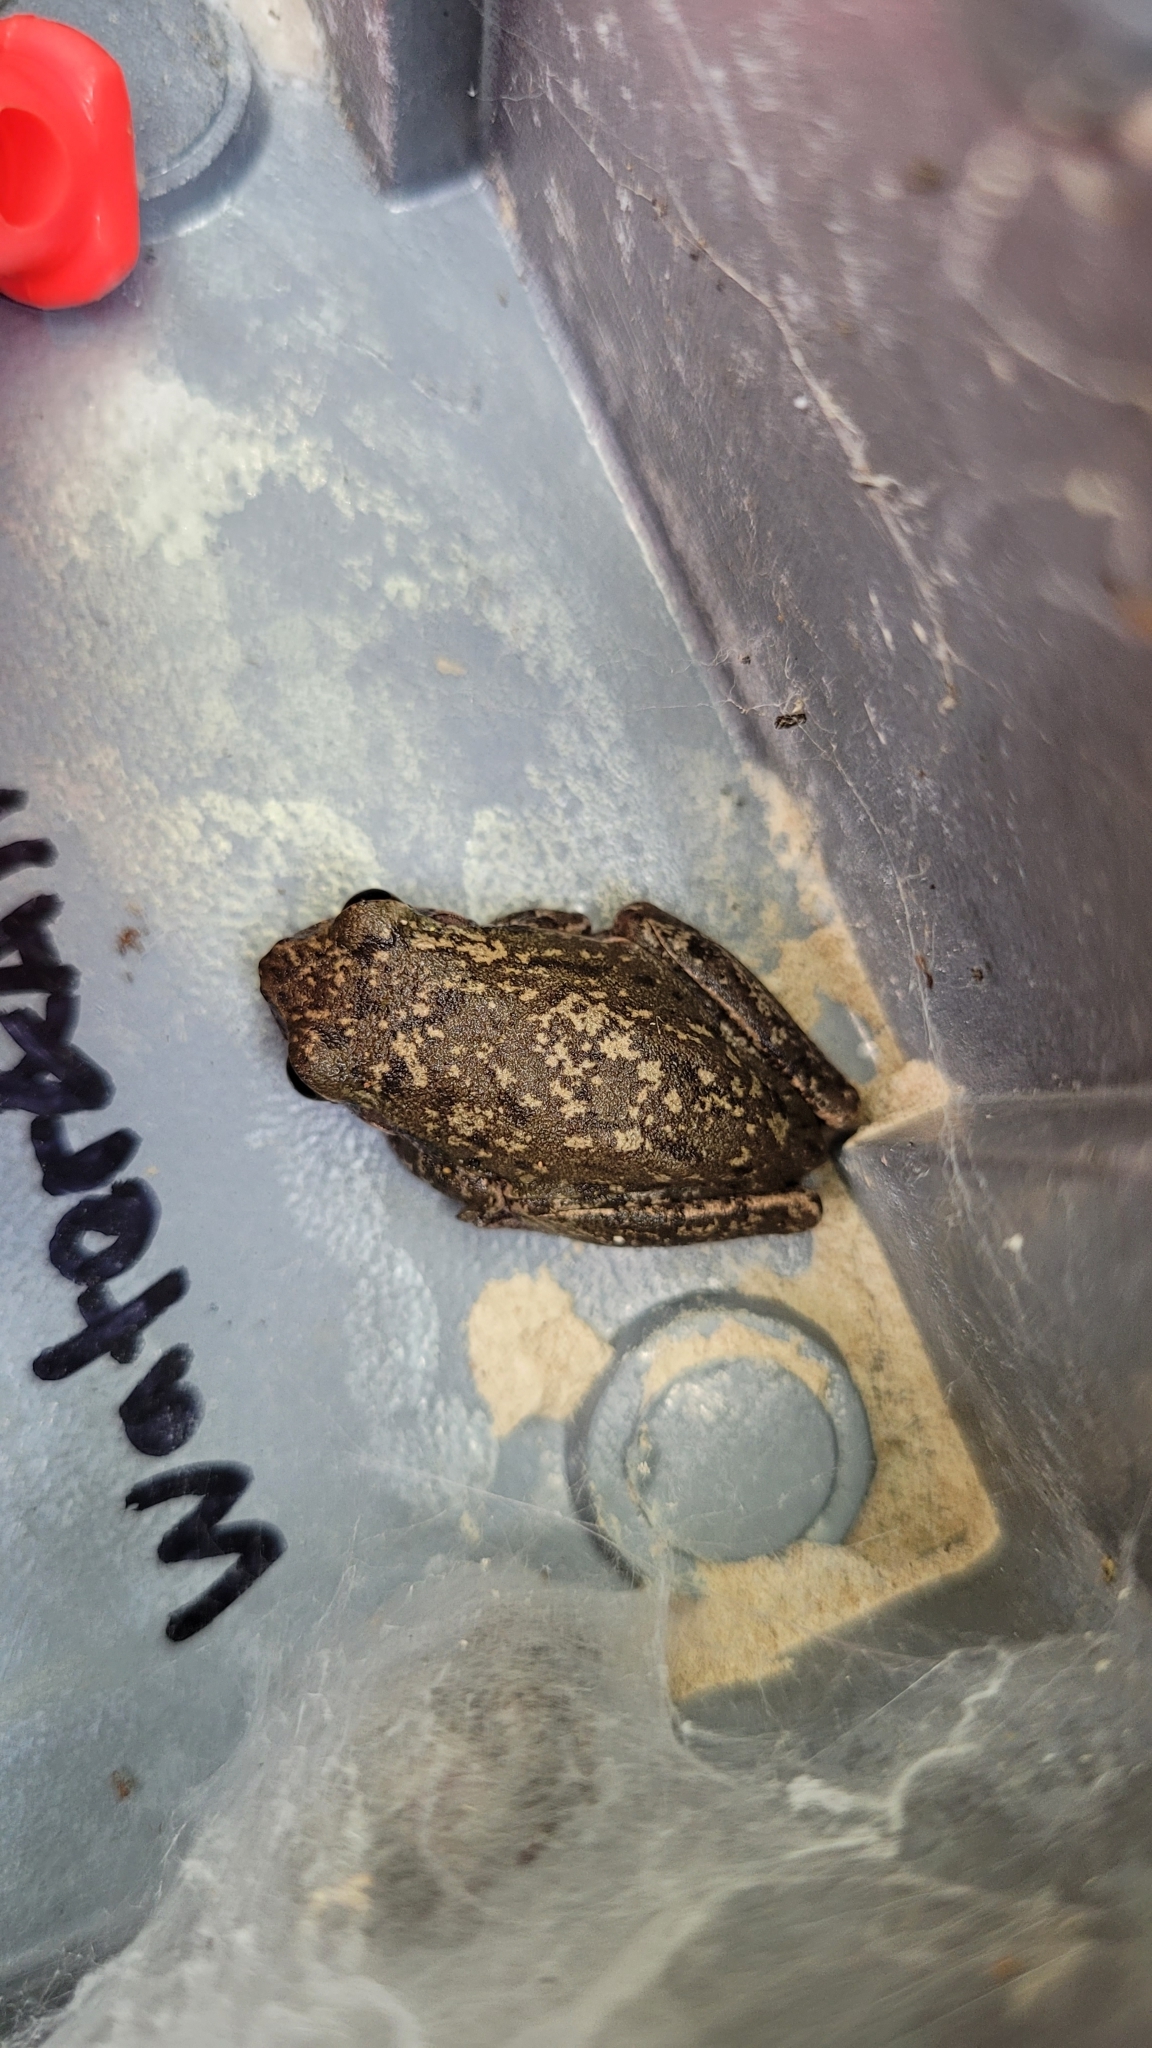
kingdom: Animalia
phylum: Chordata
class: Amphibia
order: Anura
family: Hylidae
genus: Dryophytes
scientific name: Dryophytes squirellus
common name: Squirrel treefrog
